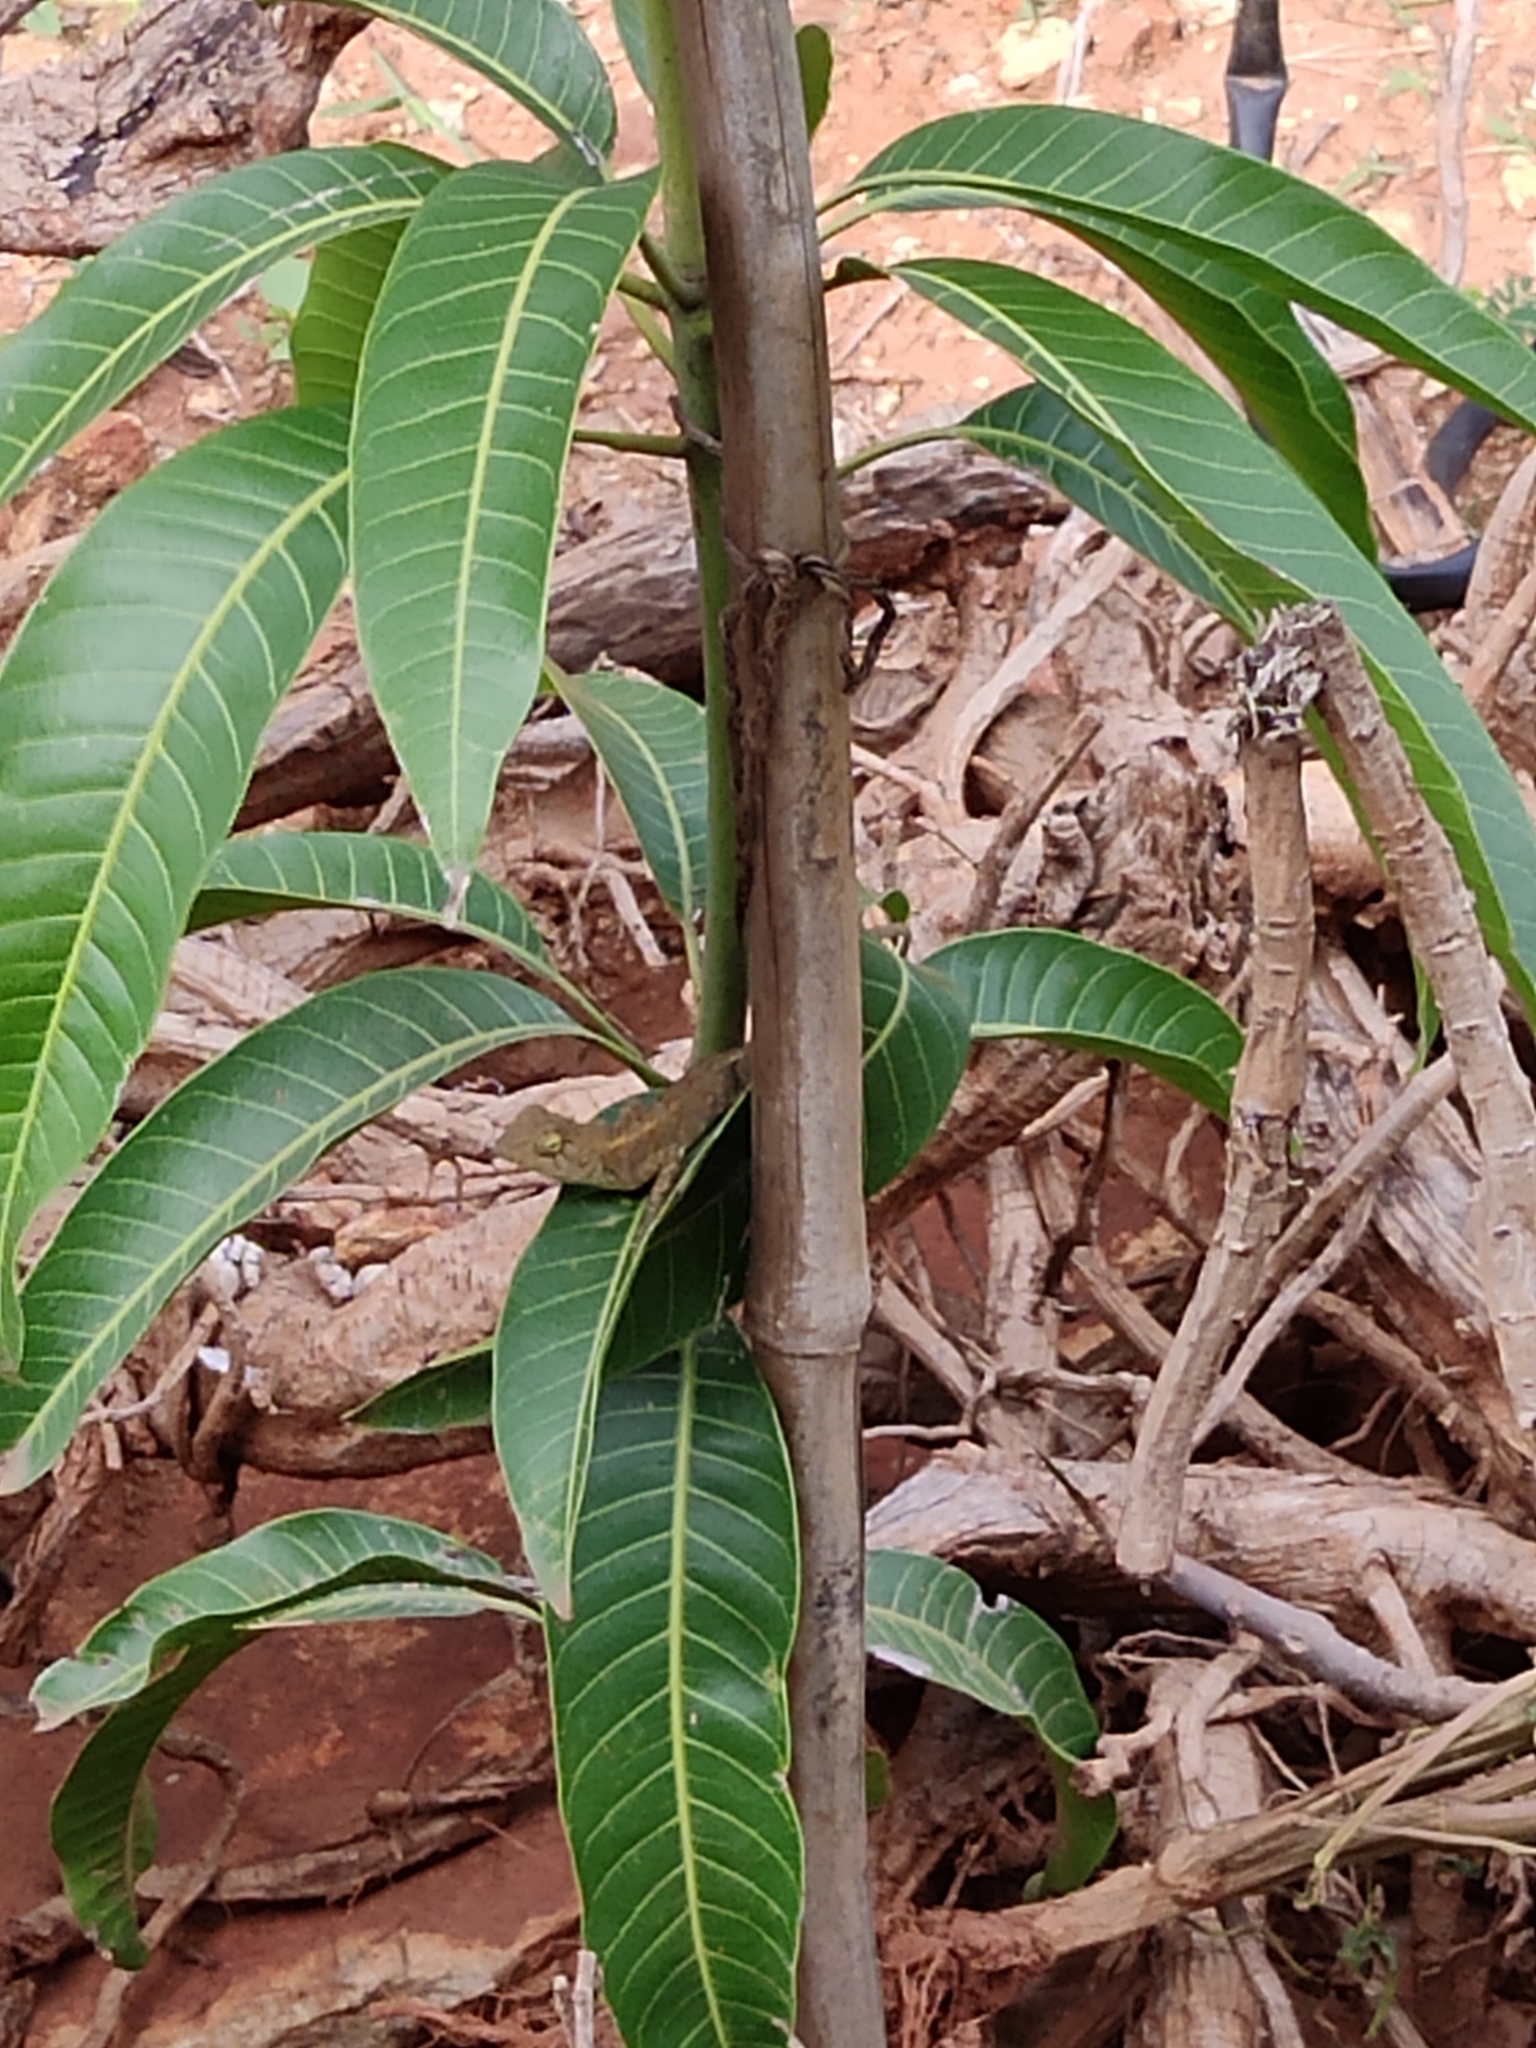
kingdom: Animalia
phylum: Chordata
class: Squamata
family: Agamidae
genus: Calotes
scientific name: Calotes versicolor
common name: Oriental garden lizard
